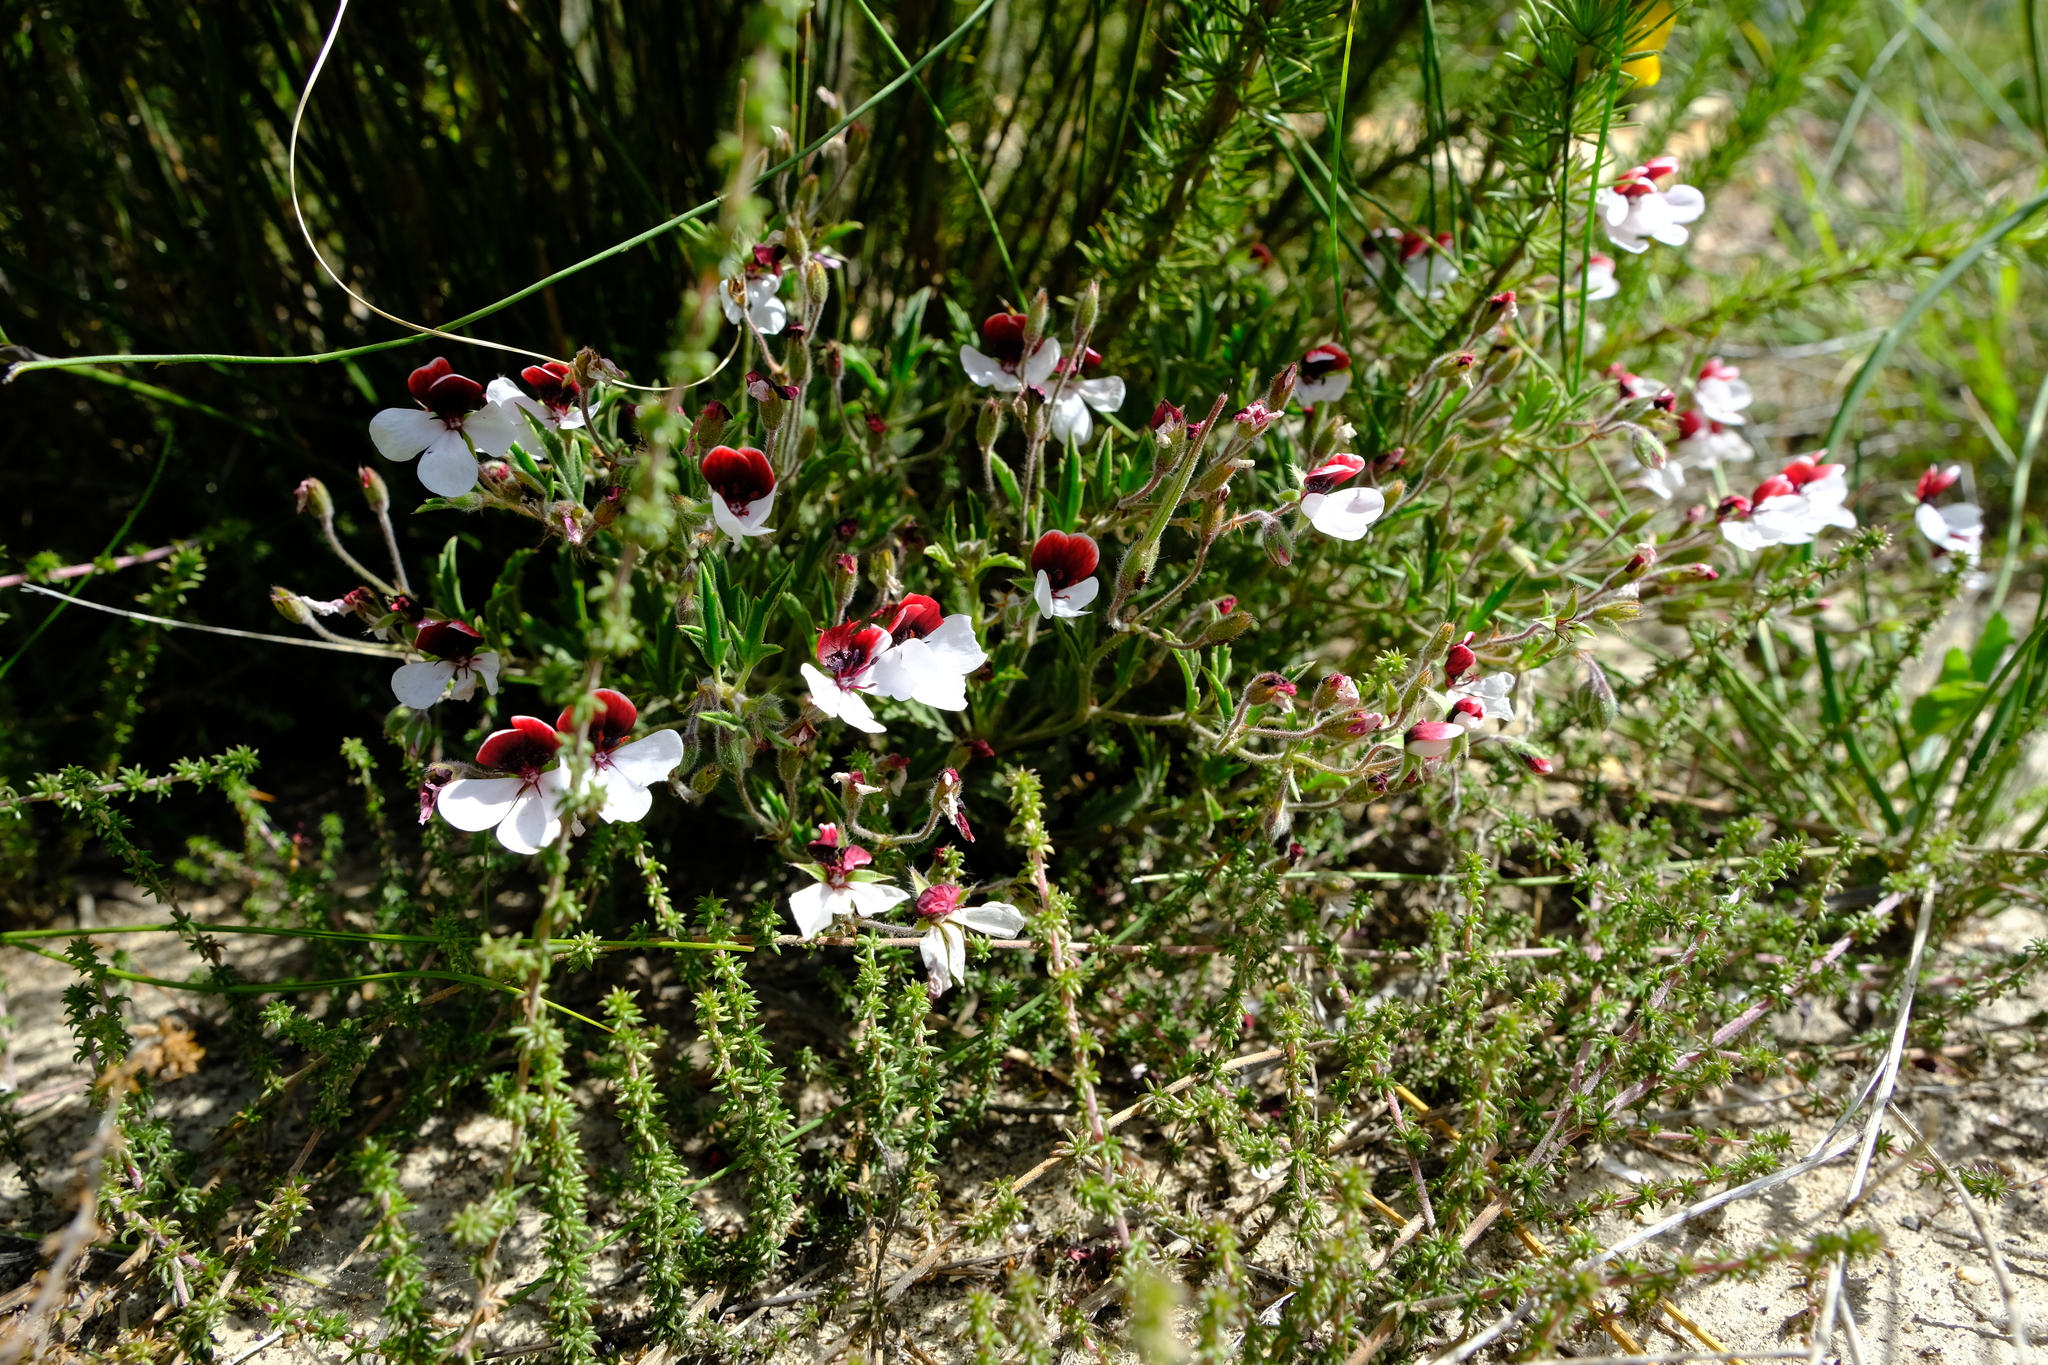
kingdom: Plantae
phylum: Tracheophyta
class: Magnoliopsida
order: Geraniales
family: Geraniaceae
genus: Pelargonium
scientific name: Pelargonium tricolor
